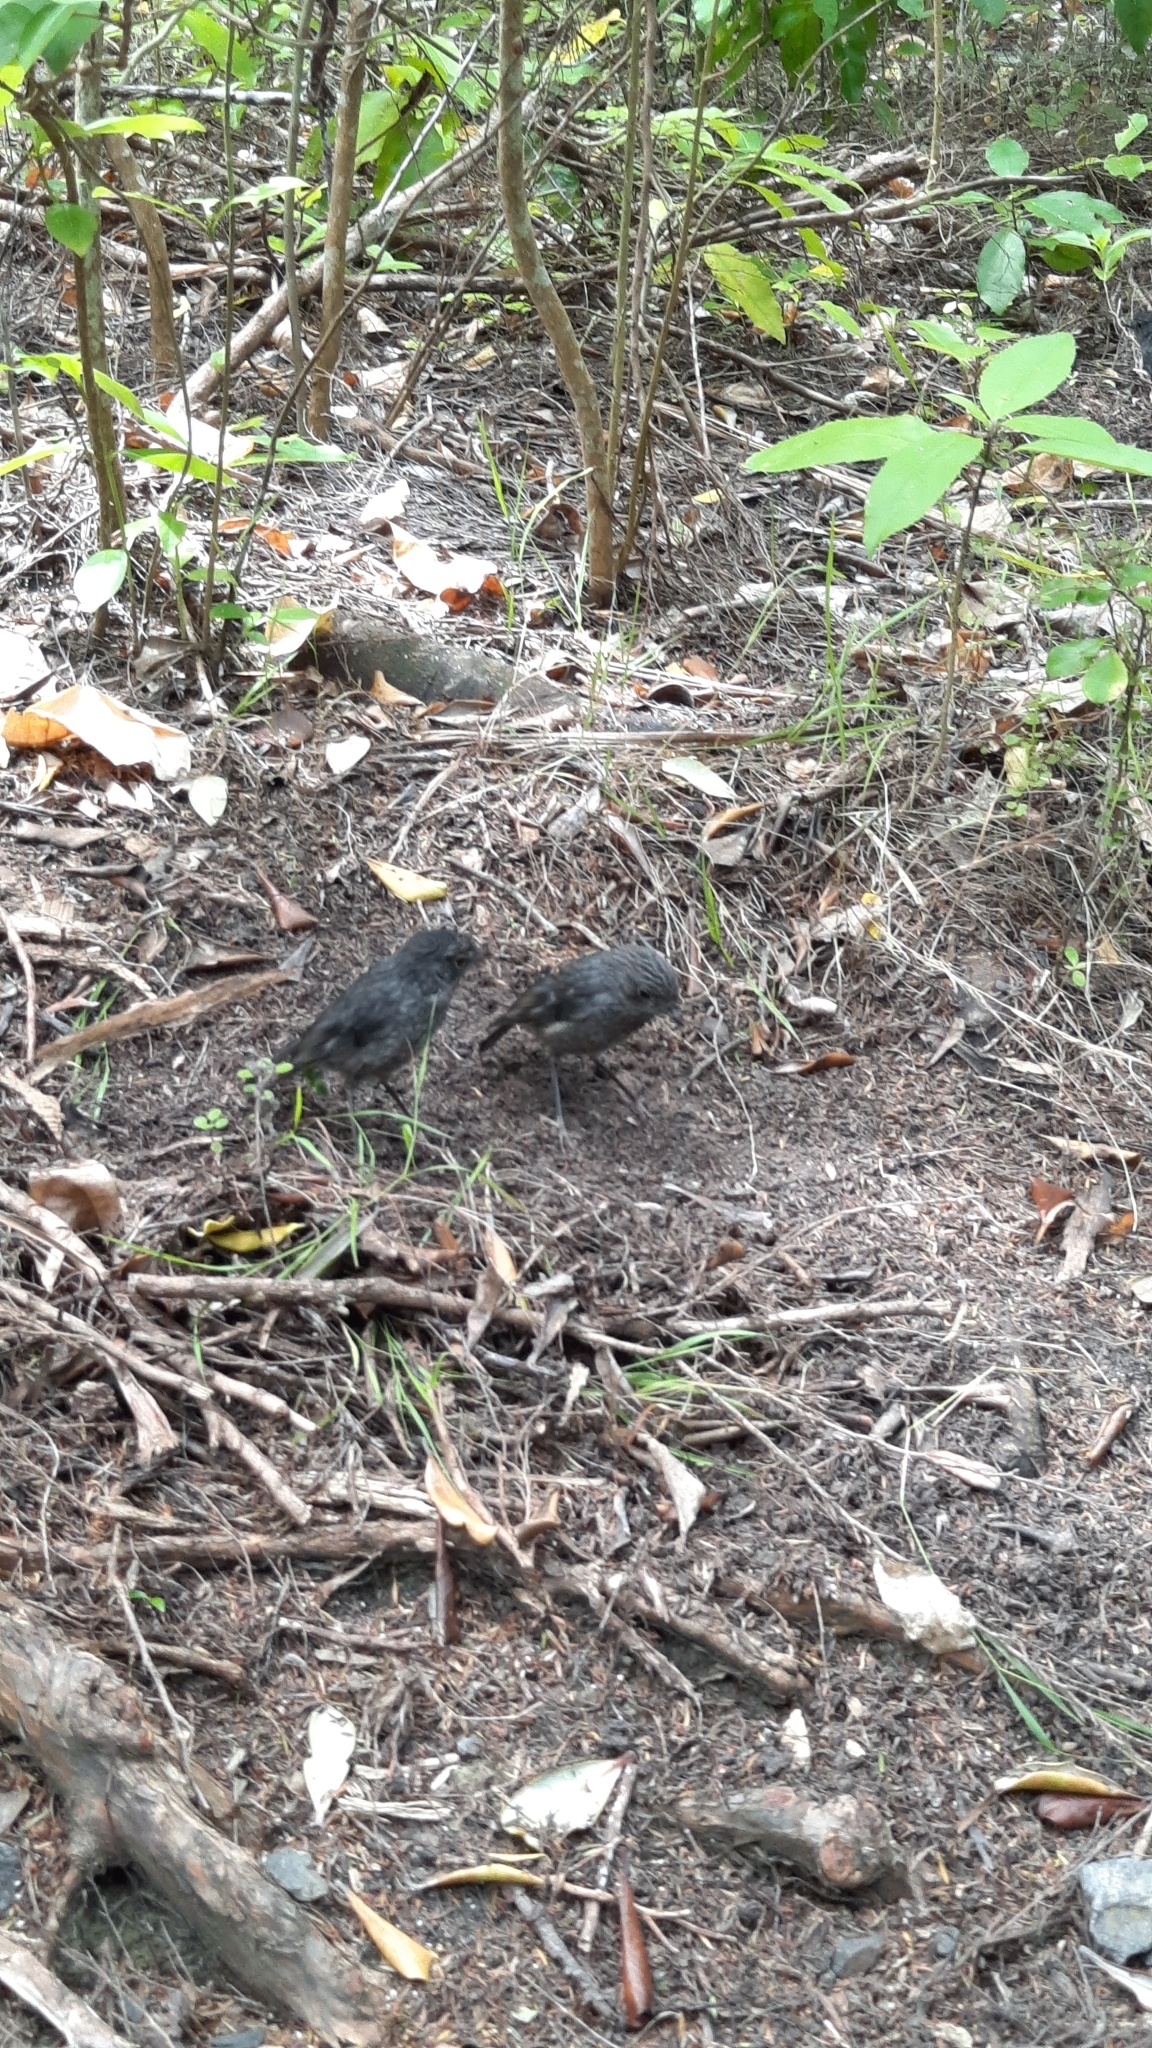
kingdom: Animalia
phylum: Chordata
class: Aves
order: Passeriformes
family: Petroicidae
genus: Petroica
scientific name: Petroica australis
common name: New zealand robin
